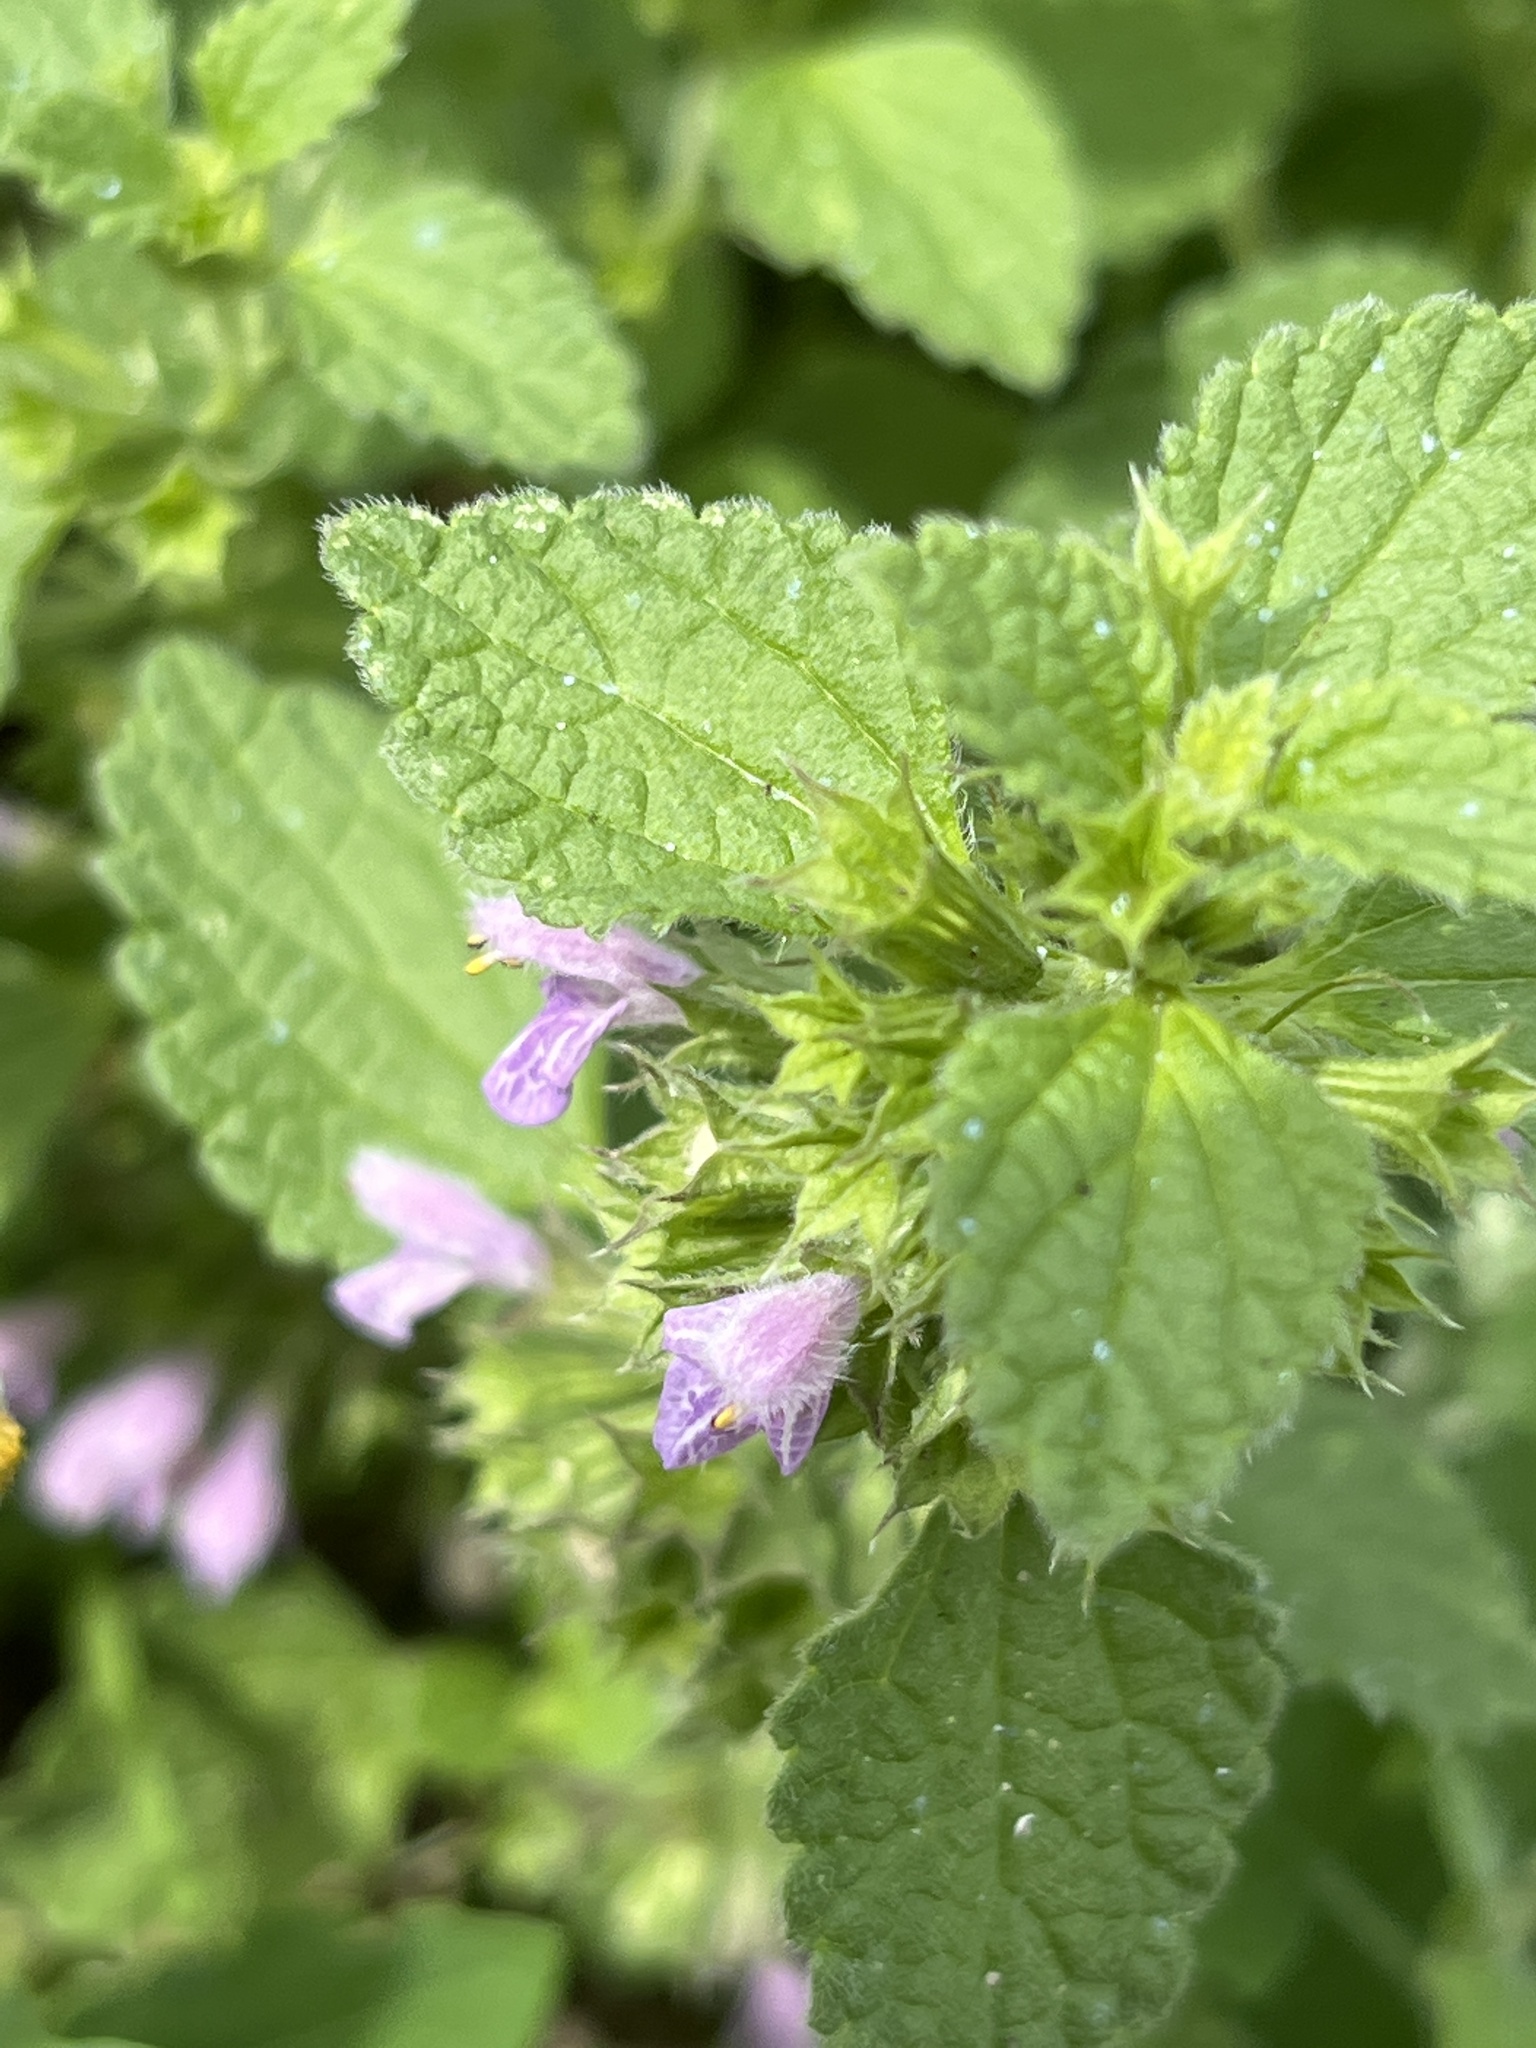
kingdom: Plantae
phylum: Tracheophyta
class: Magnoliopsida
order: Lamiales
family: Lamiaceae
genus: Ballota
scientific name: Ballota nigra
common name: Black horehound
